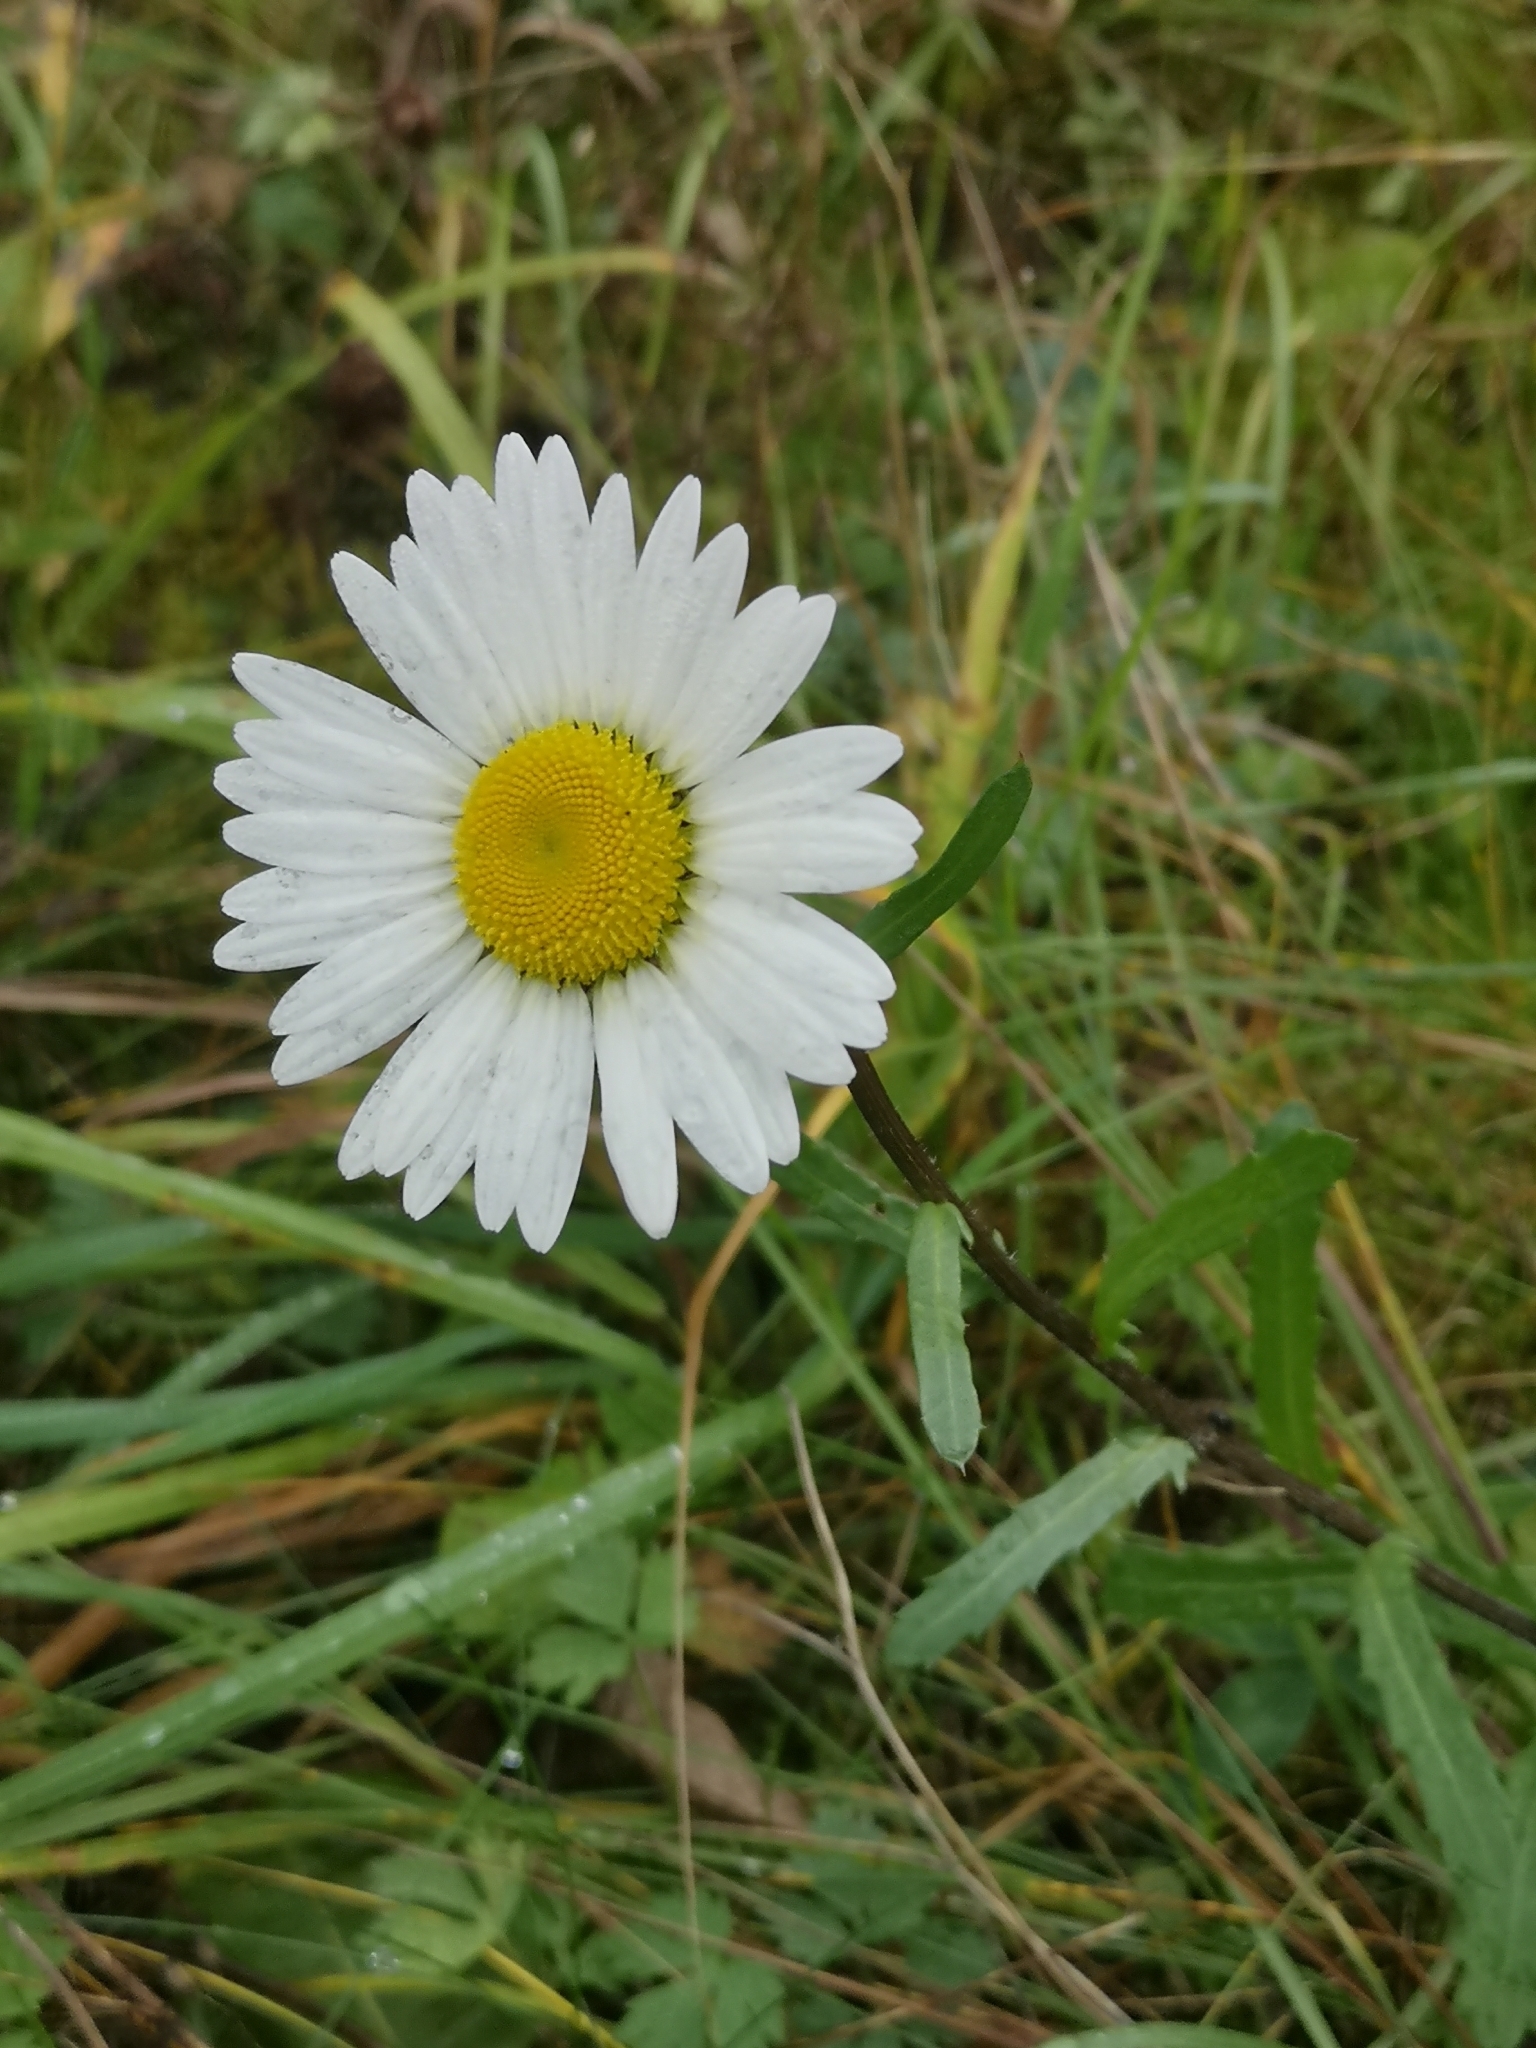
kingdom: Plantae
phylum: Tracheophyta
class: Magnoliopsida
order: Asterales
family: Asteraceae
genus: Leucanthemum
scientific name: Leucanthemum vulgare
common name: Oxeye daisy
